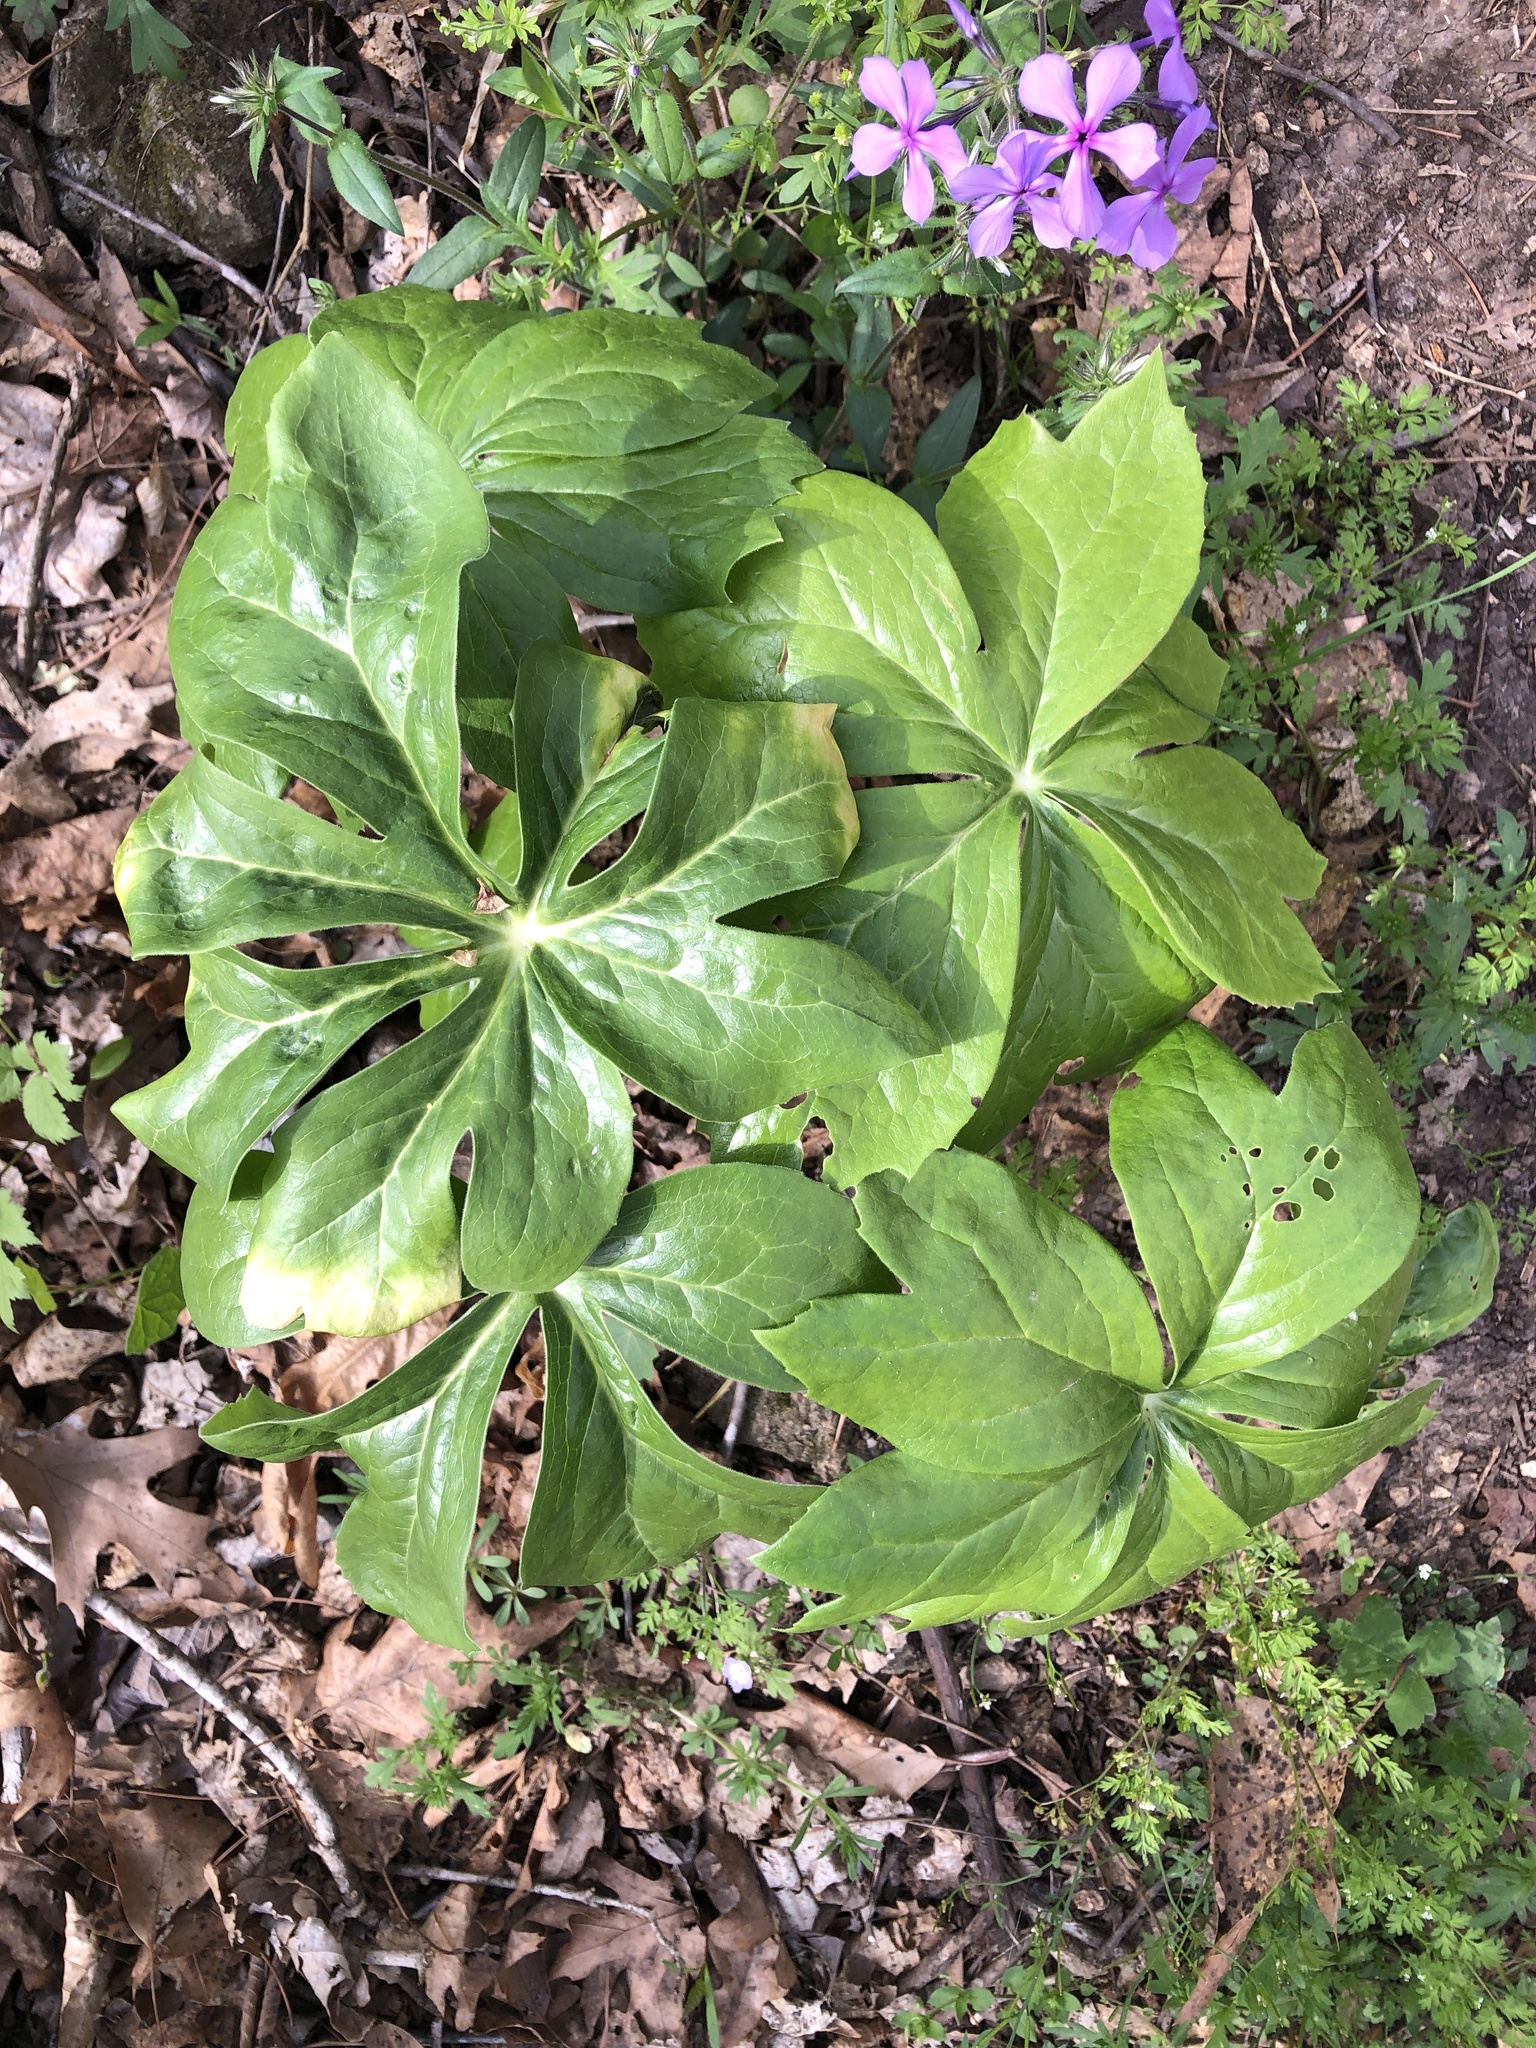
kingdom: Plantae
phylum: Tracheophyta
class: Magnoliopsida
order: Ranunculales
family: Berberidaceae
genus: Podophyllum
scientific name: Podophyllum peltatum
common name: Wild mandrake
